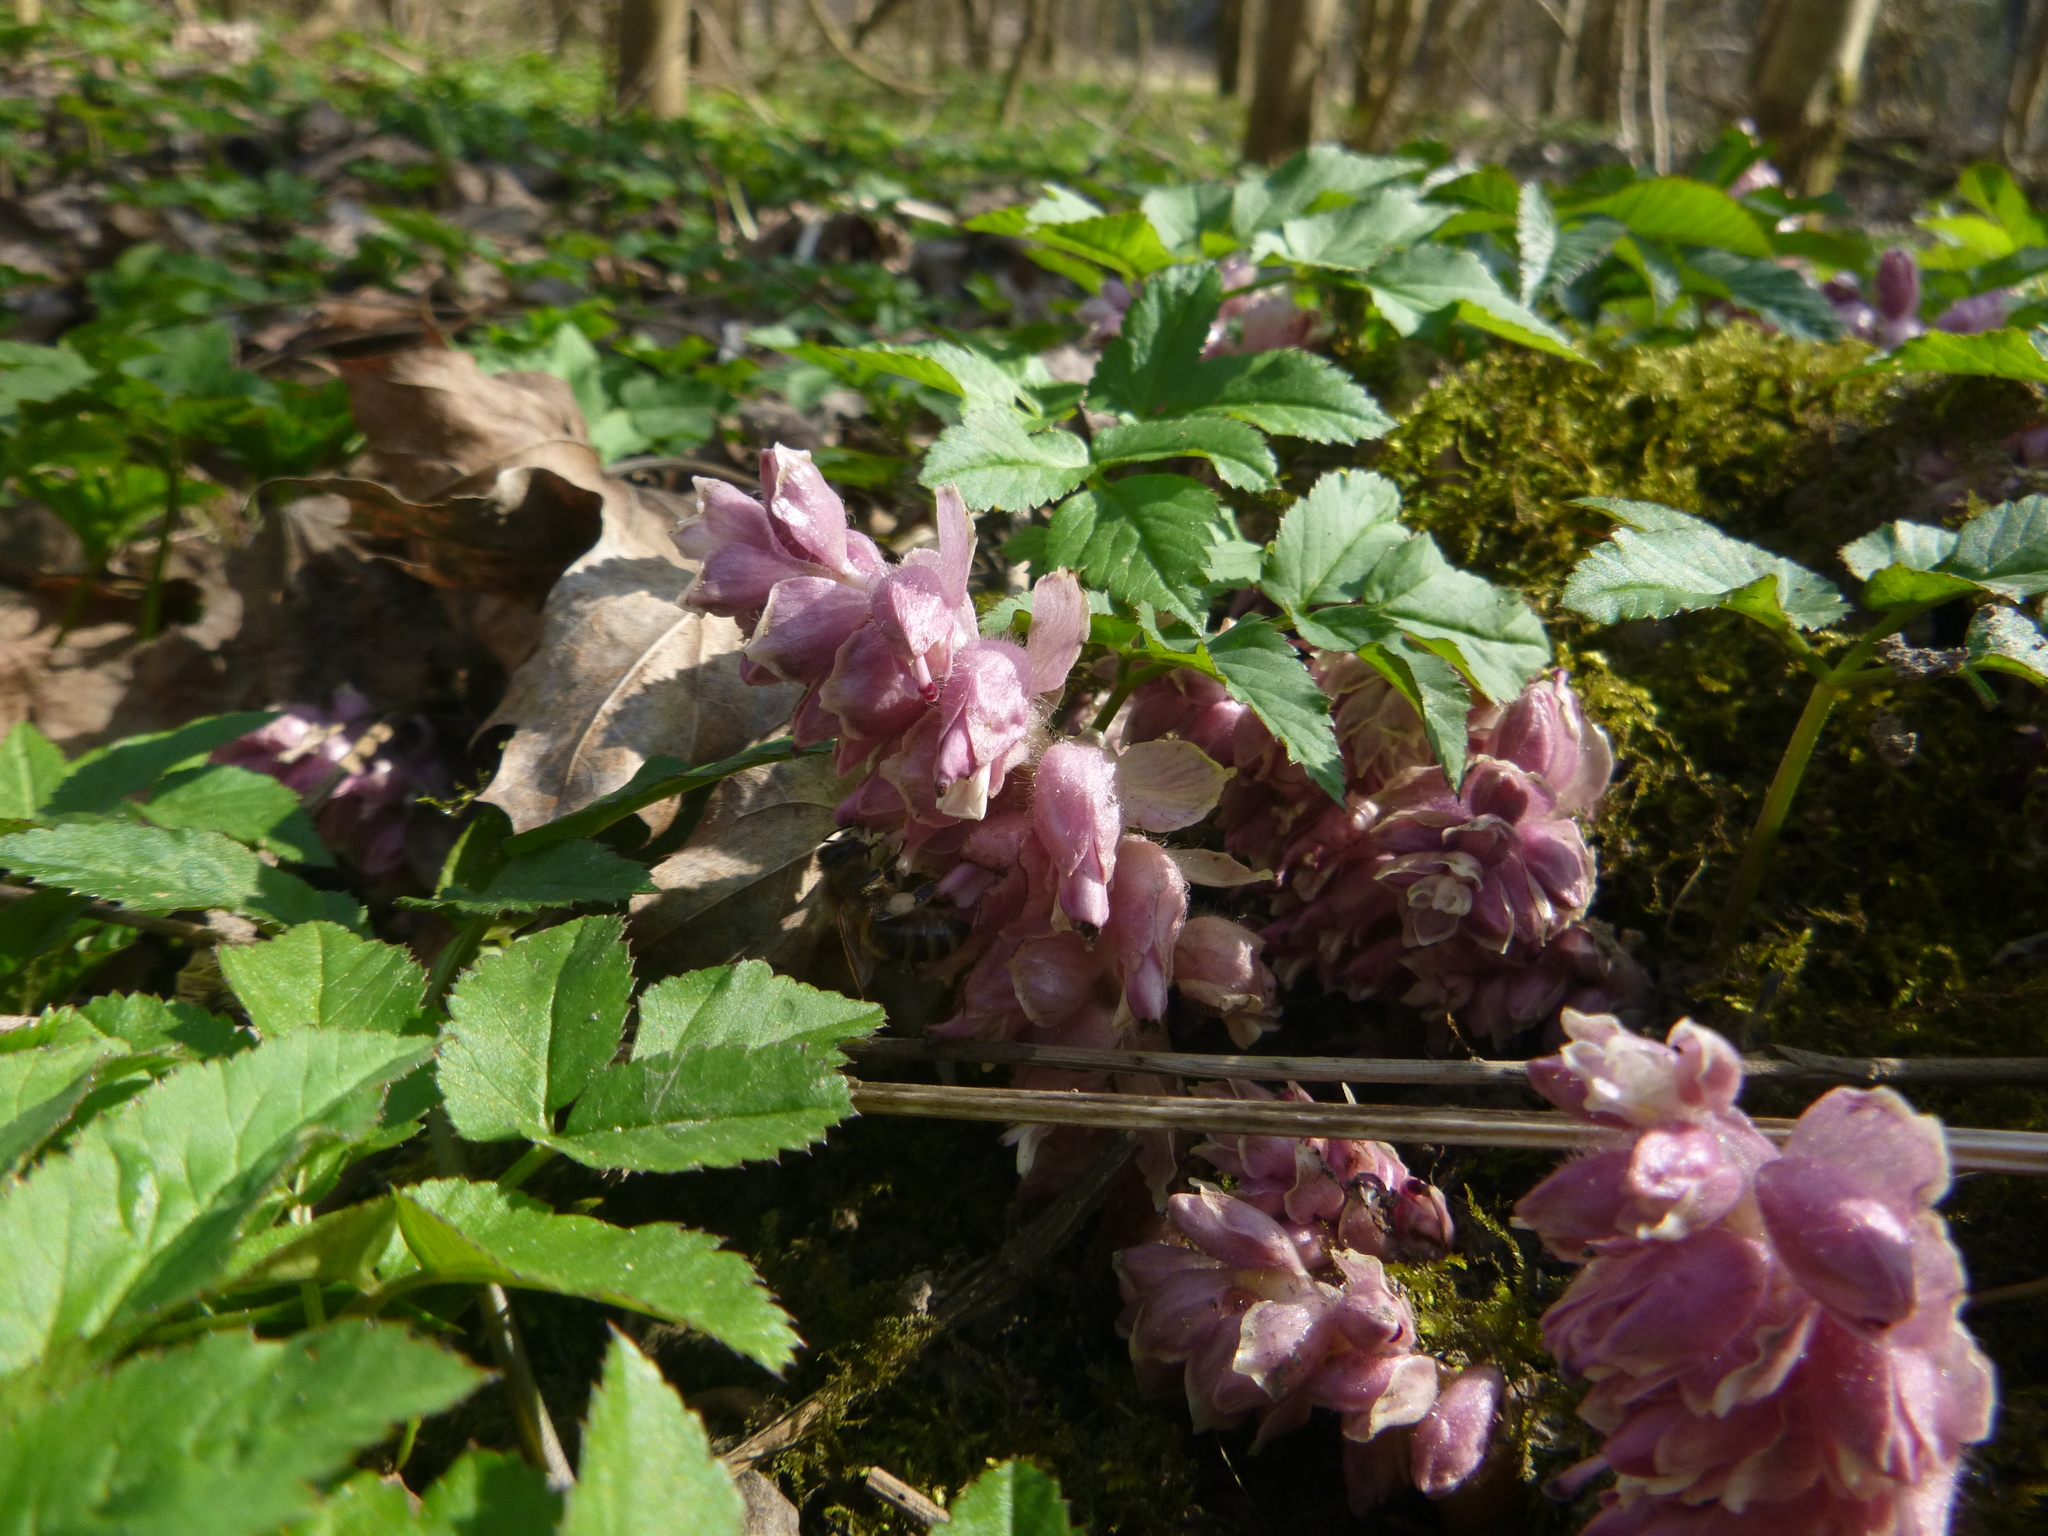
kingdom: Plantae
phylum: Tracheophyta
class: Magnoliopsida
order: Lamiales
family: Orobanchaceae
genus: Lathraea
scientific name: Lathraea squamaria
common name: Toothwort
